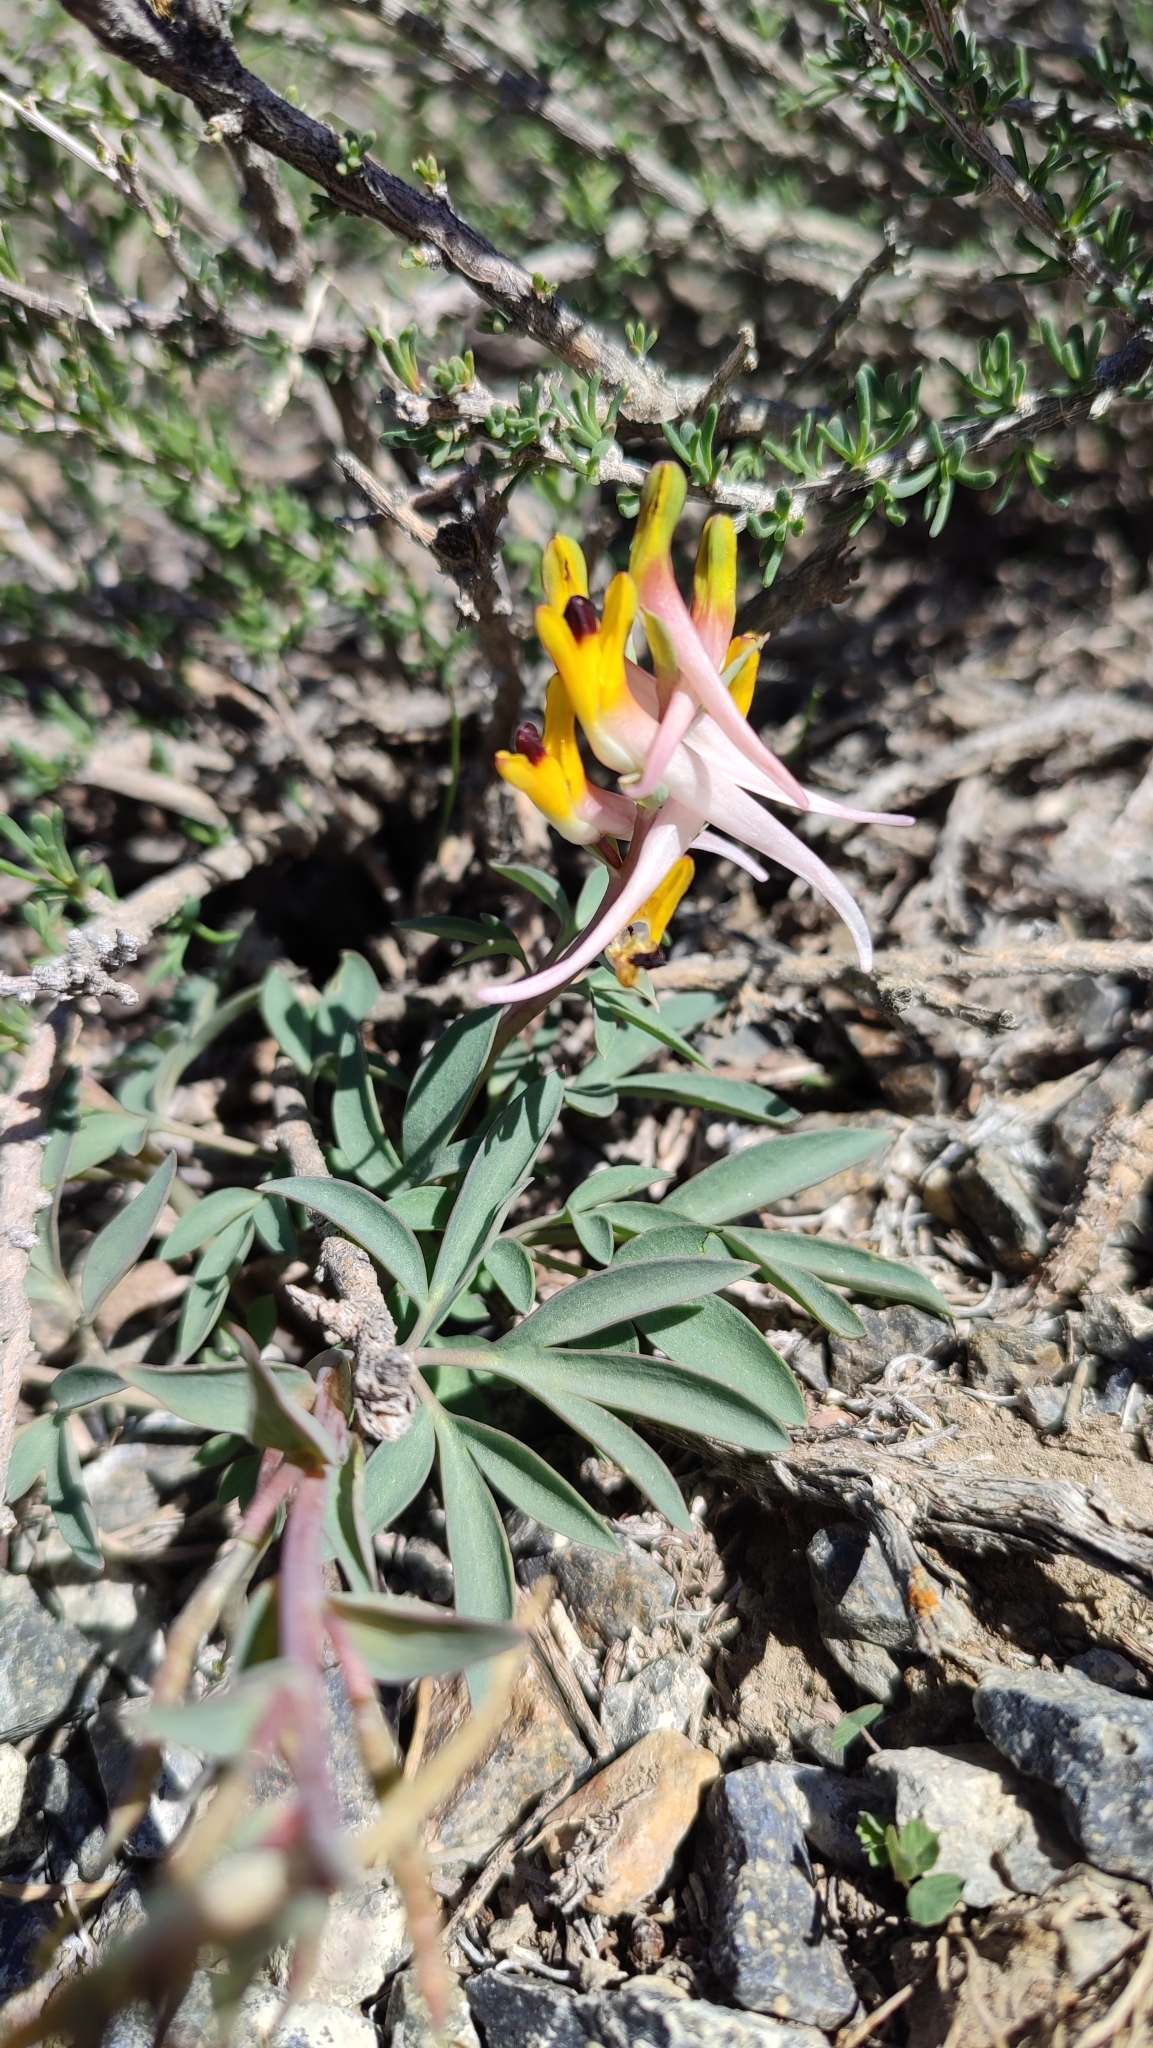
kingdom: Plantae
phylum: Tracheophyta
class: Magnoliopsida
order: Ranunculales
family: Papaveraceae
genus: Corydalis
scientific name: Corydalis schanginii
